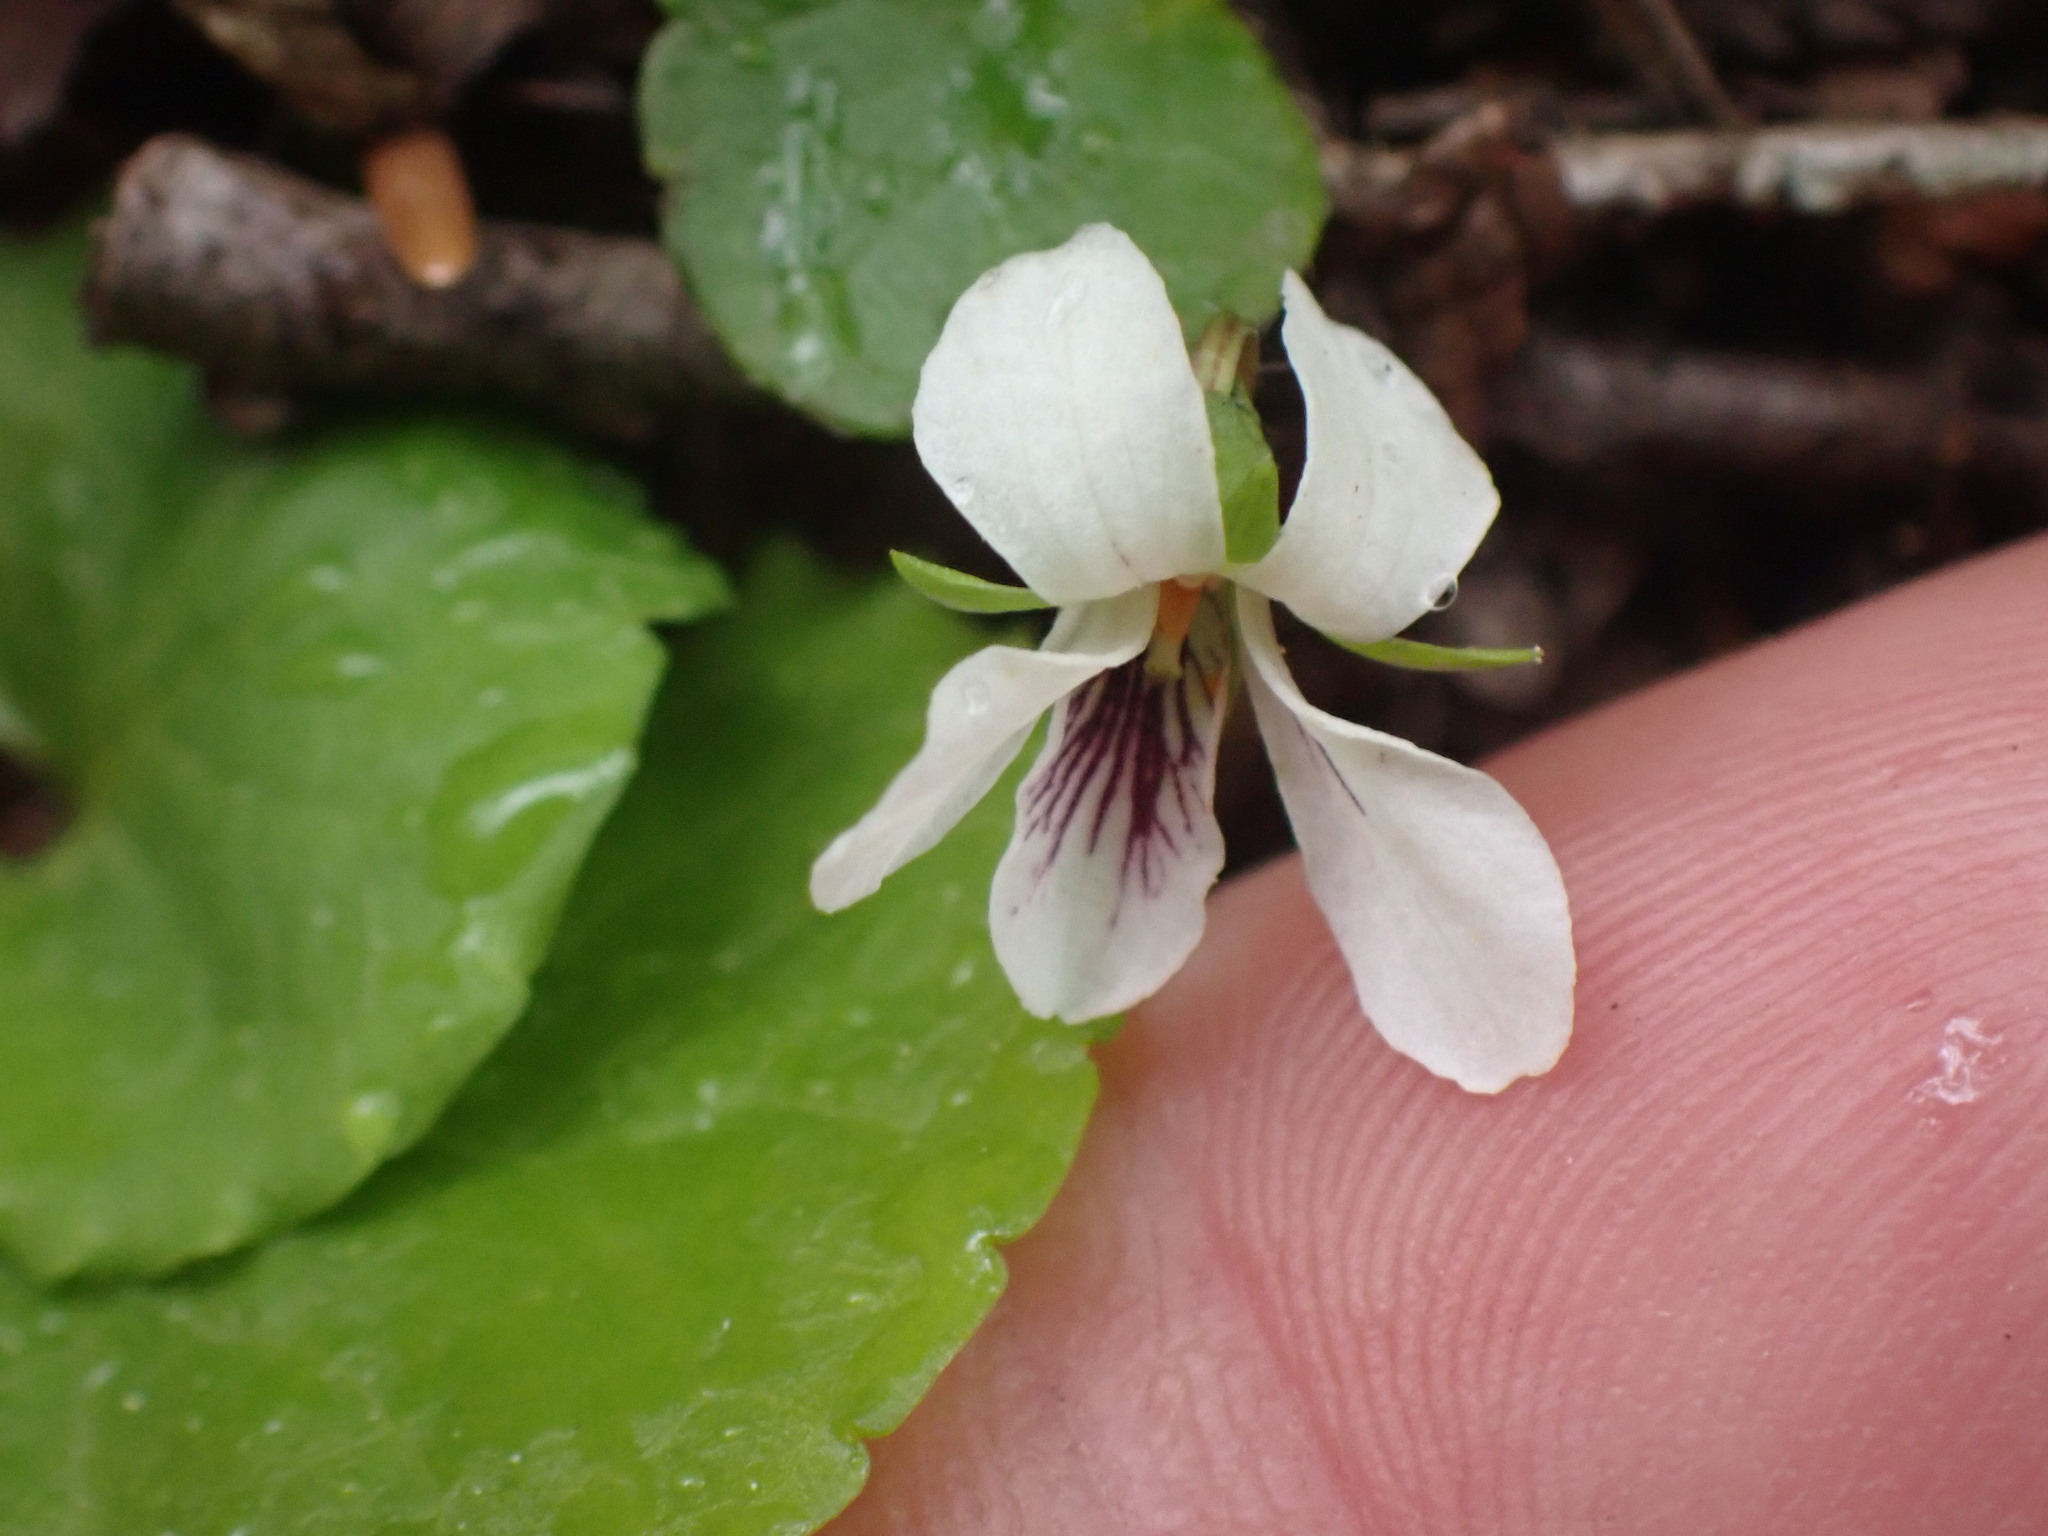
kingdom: Plantae
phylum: Tracheophyta
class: Magnoliopsida
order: Malpighiales
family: Violaceae
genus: Viola
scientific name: Viola renifolia
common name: Kidney-leaf violet
